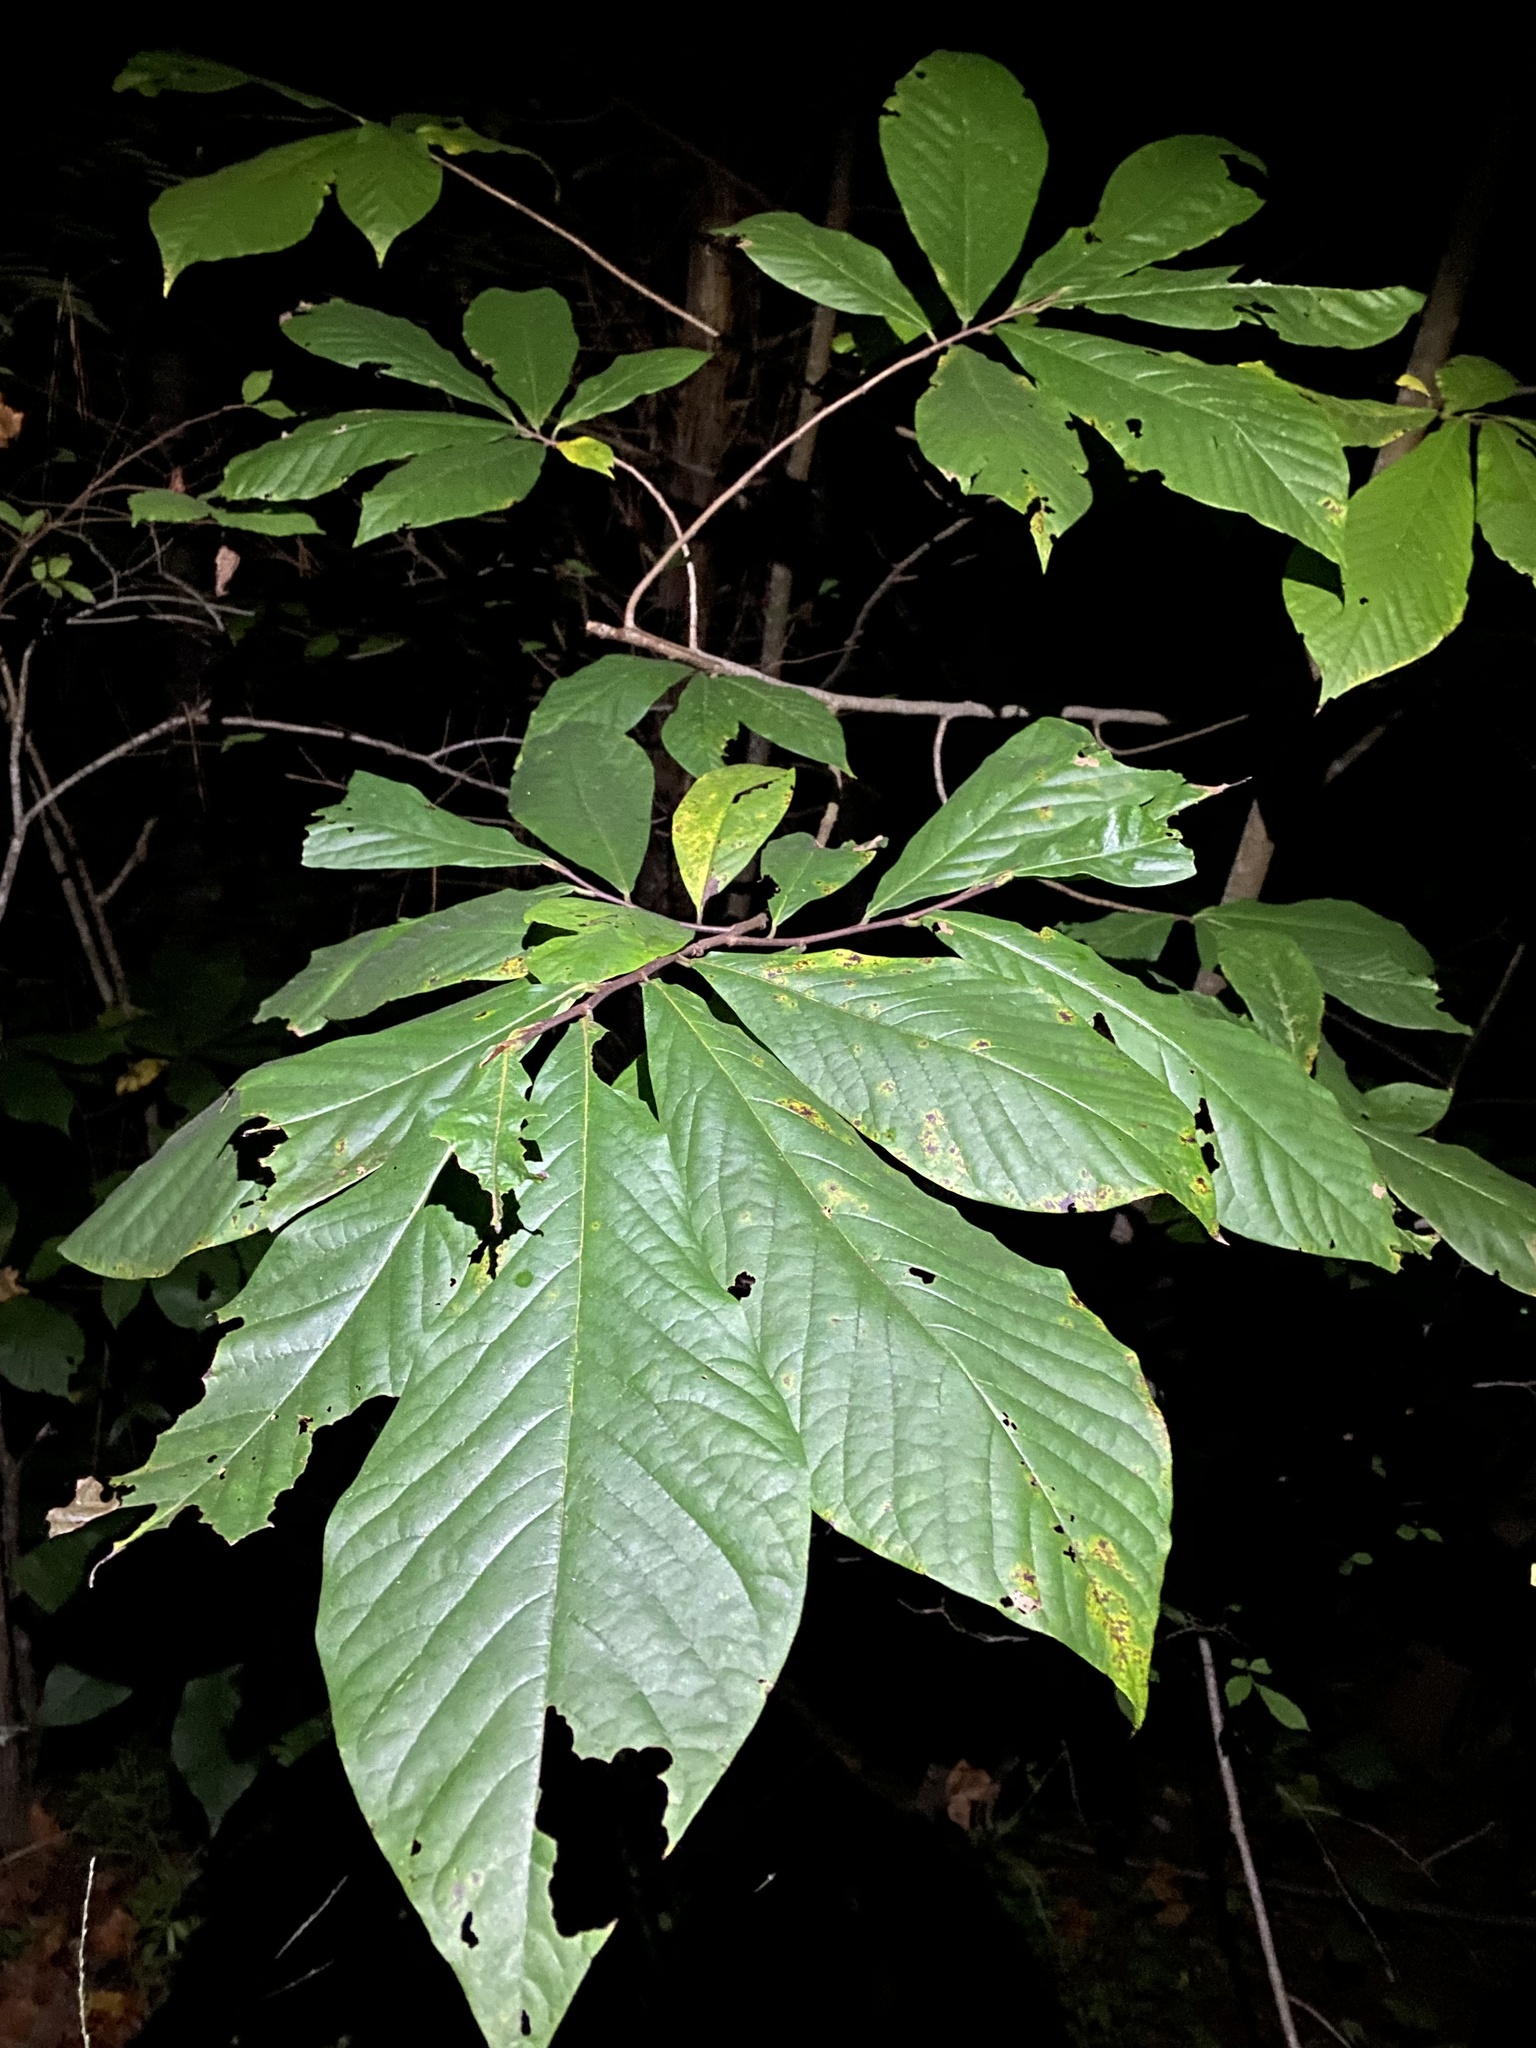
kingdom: Plantae
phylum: Tracheophyta
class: Magnoliopsida
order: Magnoliales
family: Annonaceae
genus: Asimina
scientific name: Asimina triloba
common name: Dog-banana
